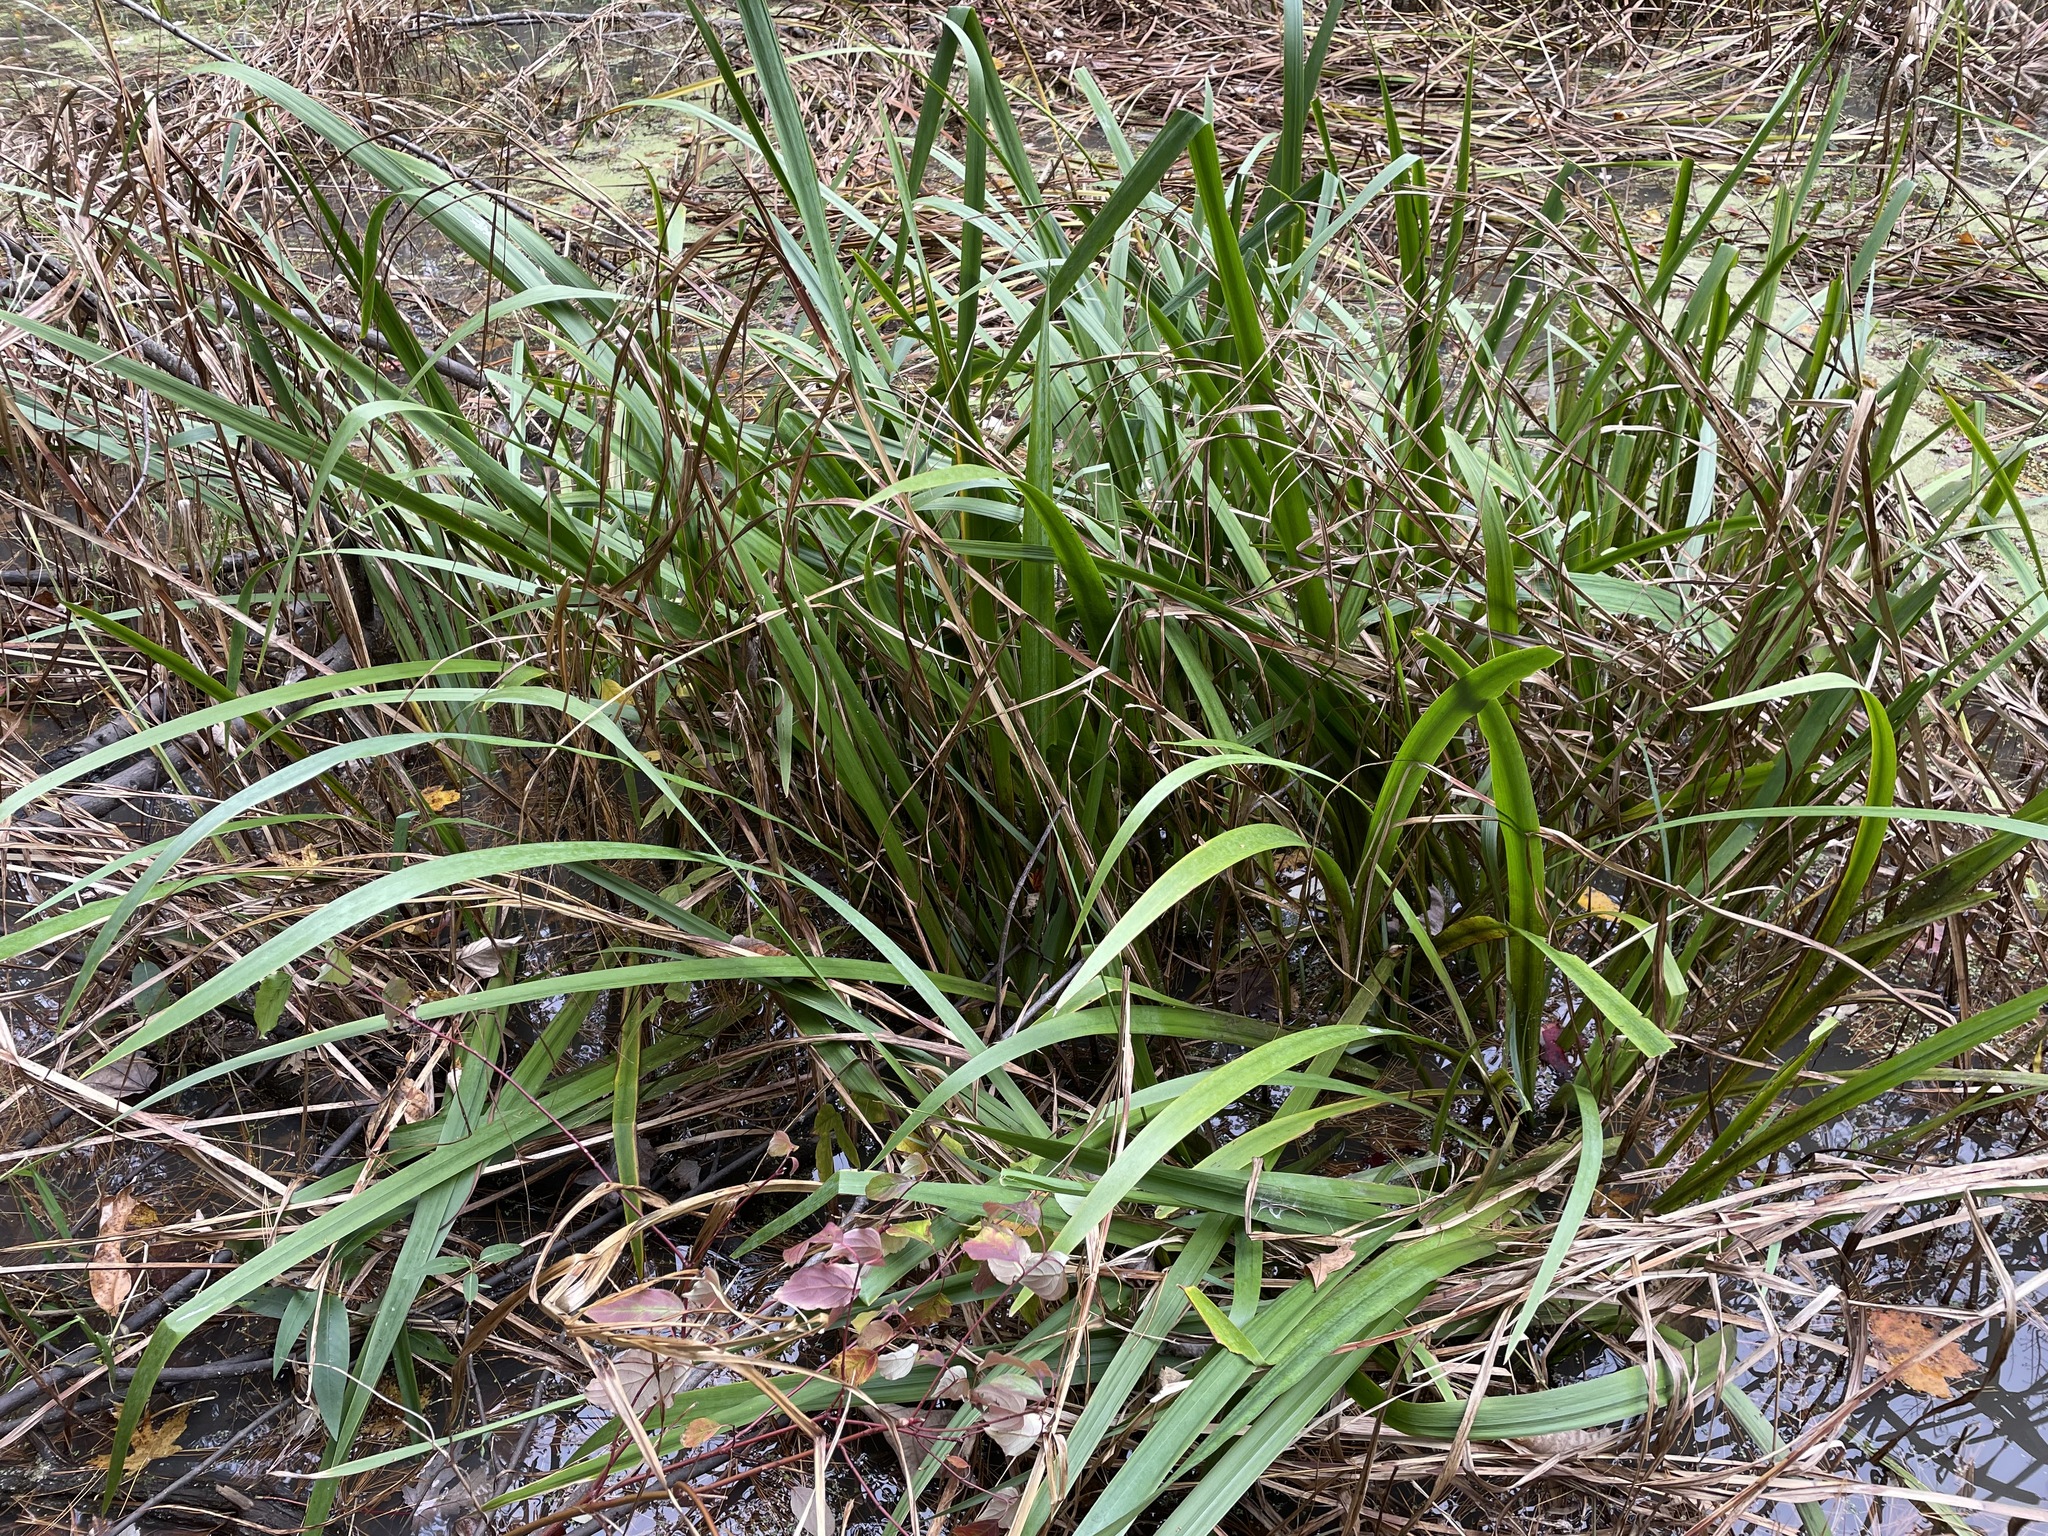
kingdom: Plantae
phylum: Tracheophyta
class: Liliopsida
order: Asparagales
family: Iridaceae
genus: Iris
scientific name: Iris pseudacorus
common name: Yellow flag
